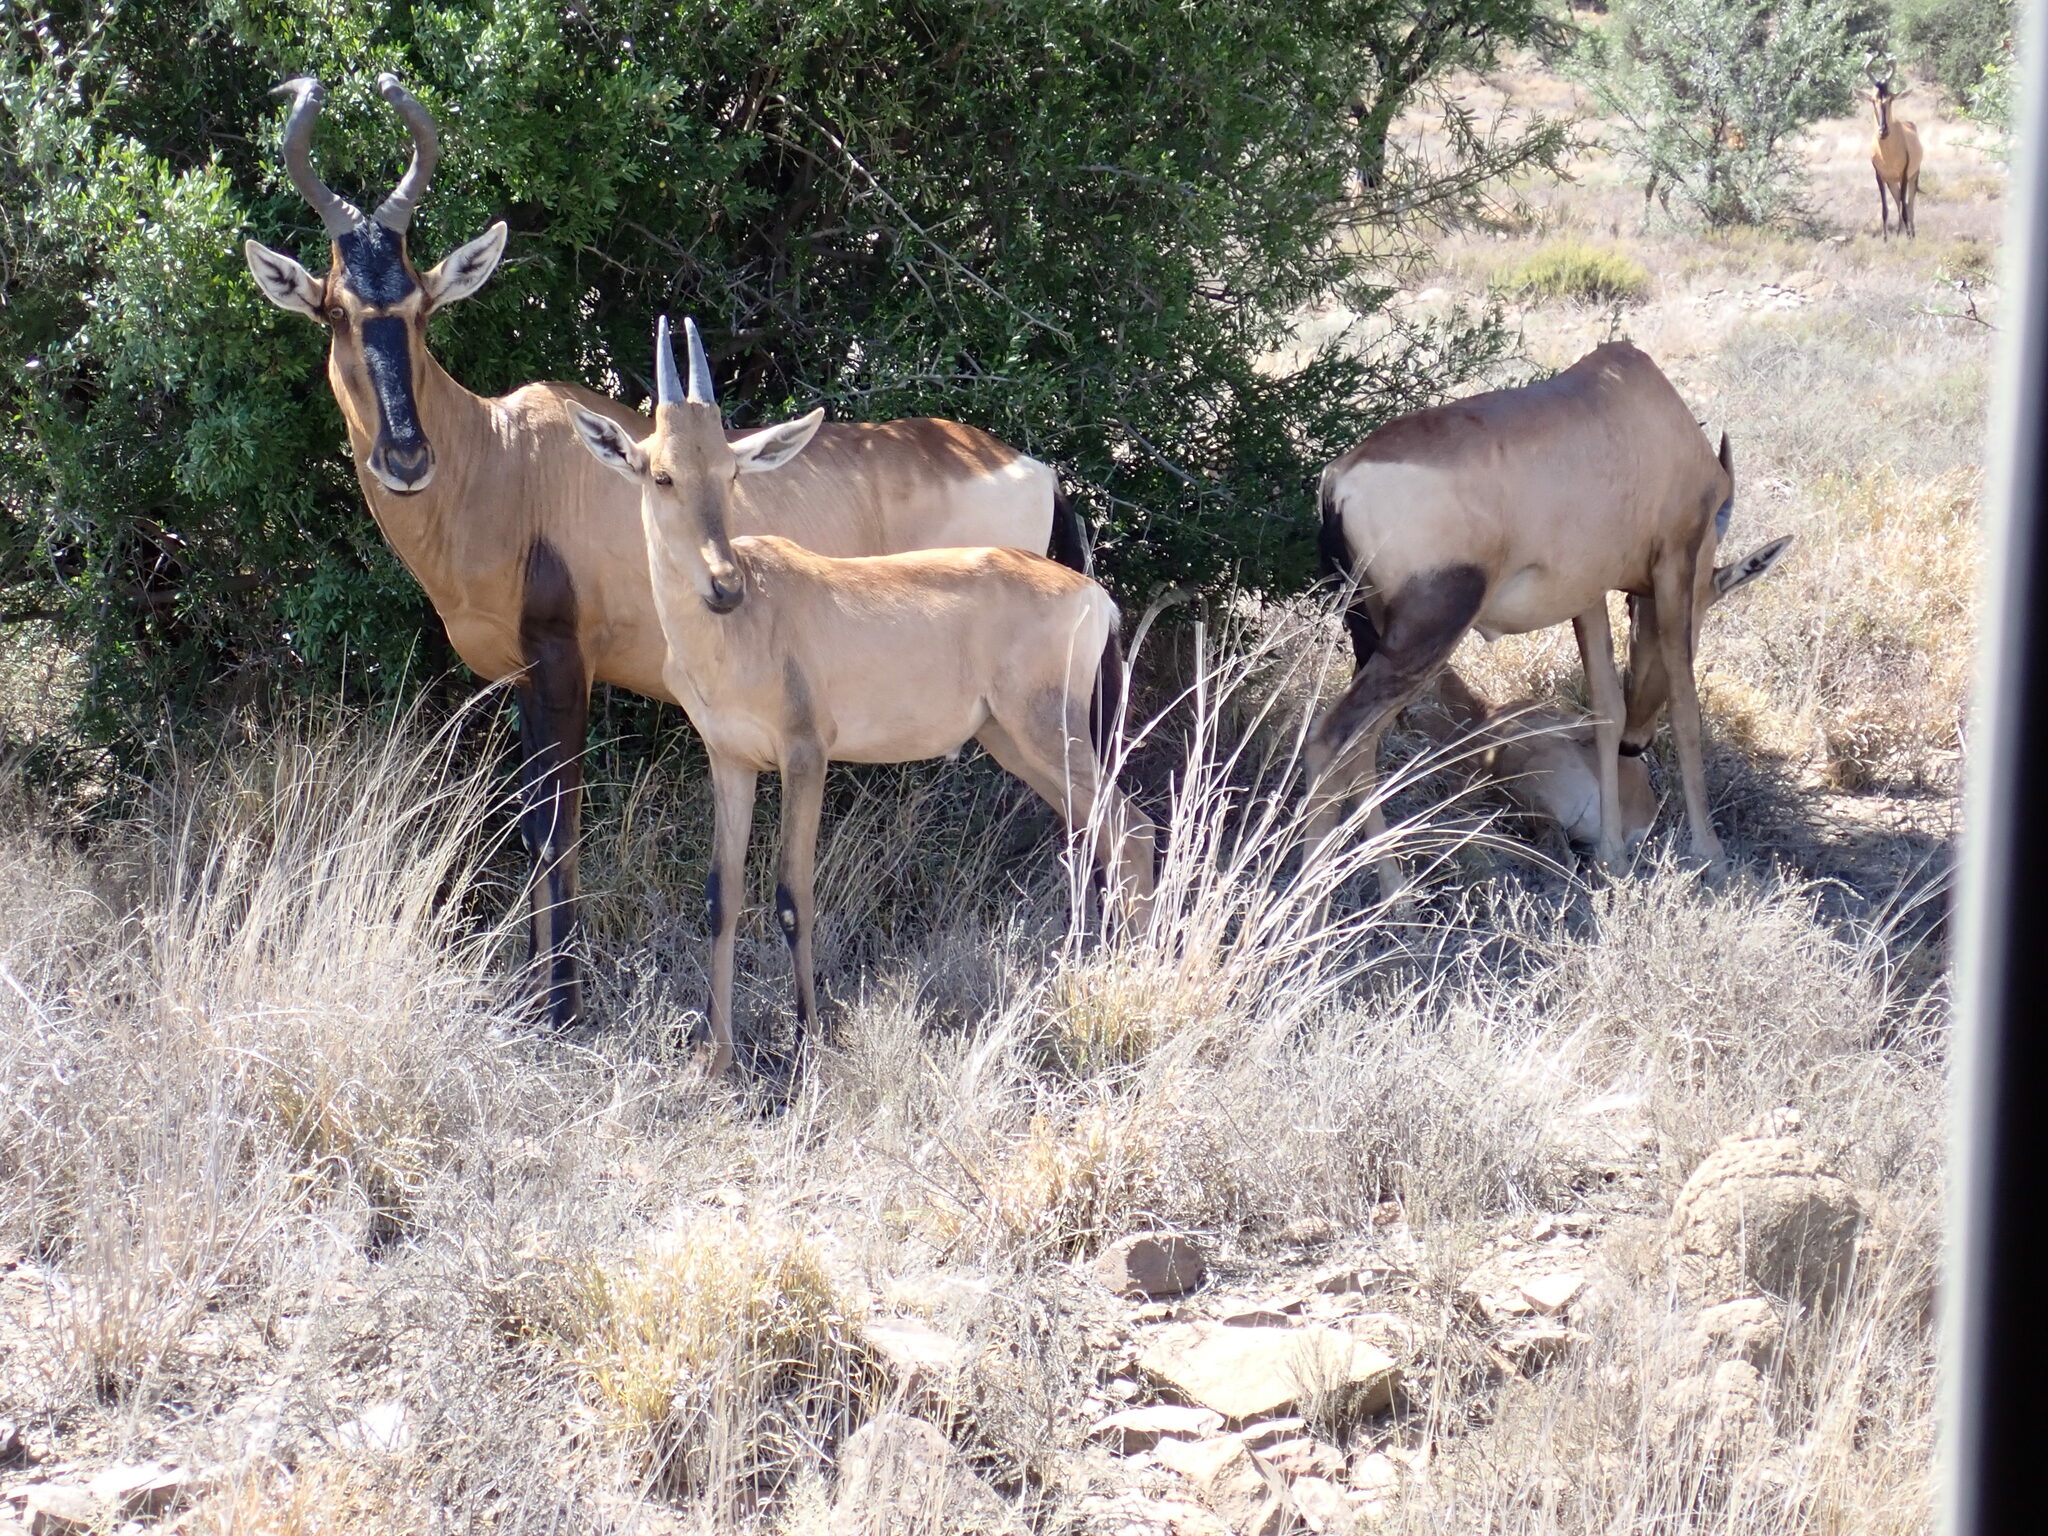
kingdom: Animalia
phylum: Chordata
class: Mammalia
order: Artiodactyla
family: Bovidae
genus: Alcelaphus
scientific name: Alcelaphus caama
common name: Red hartebeest
